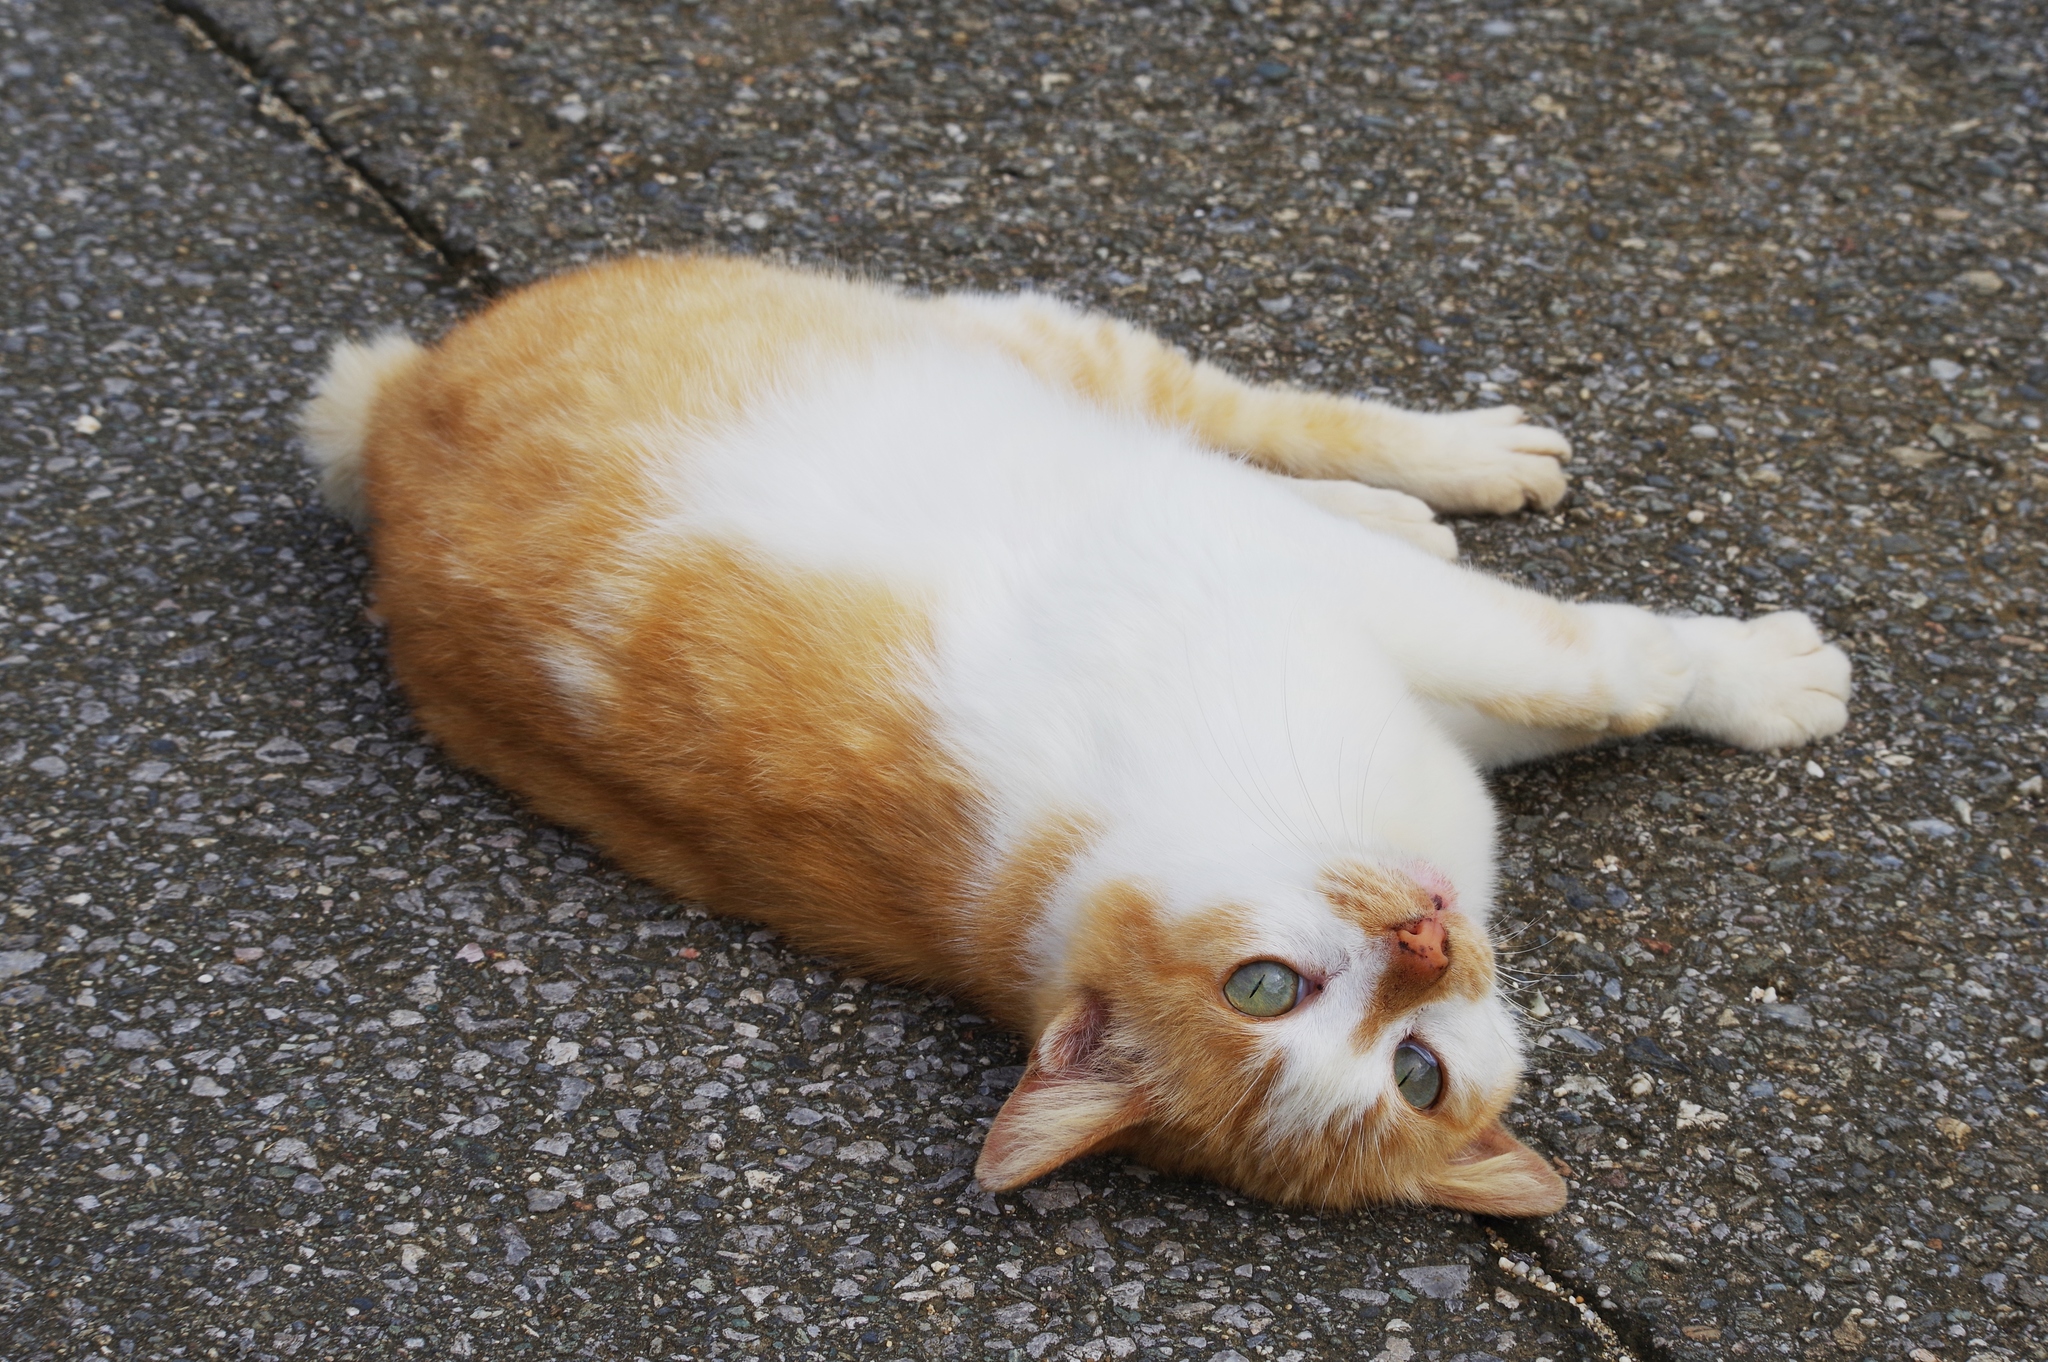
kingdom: Animalia
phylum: Chordata
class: Mammalia
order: Carnivora
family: Felidae
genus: Felis
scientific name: Felis catus
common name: Domestic cat
